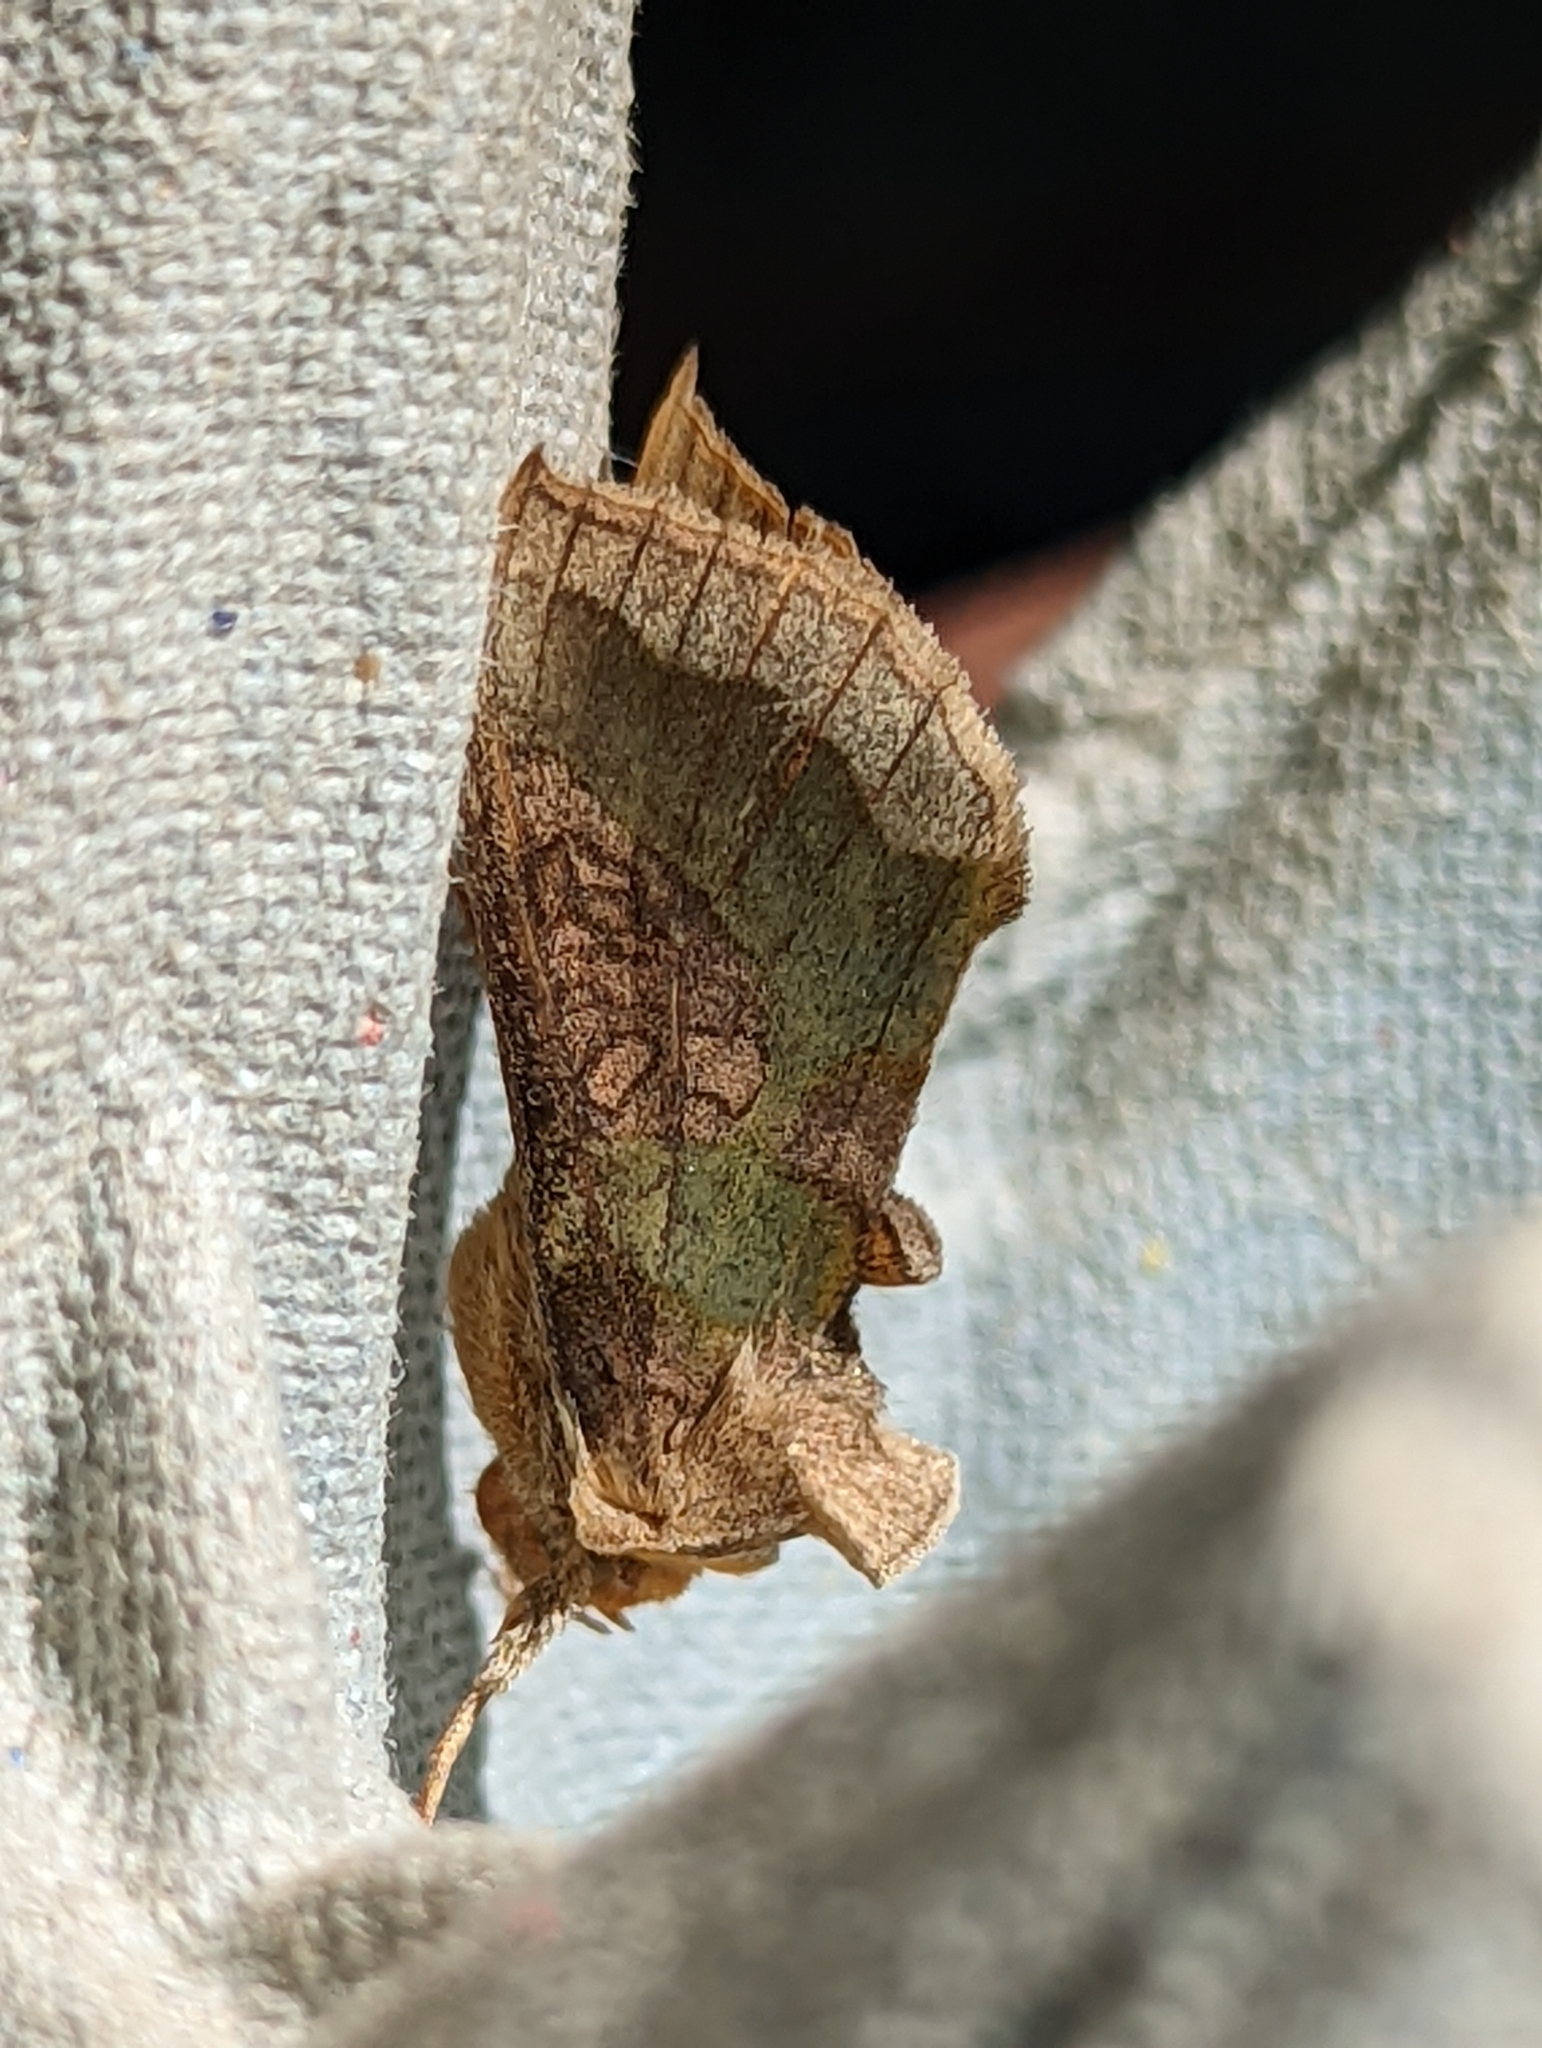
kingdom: Animalia
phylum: Arthropoda
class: Insecta
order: Lepidoptera
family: Noctuidae
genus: Diachrysia
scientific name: Diachrysia chrysitis
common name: Burnished brass
